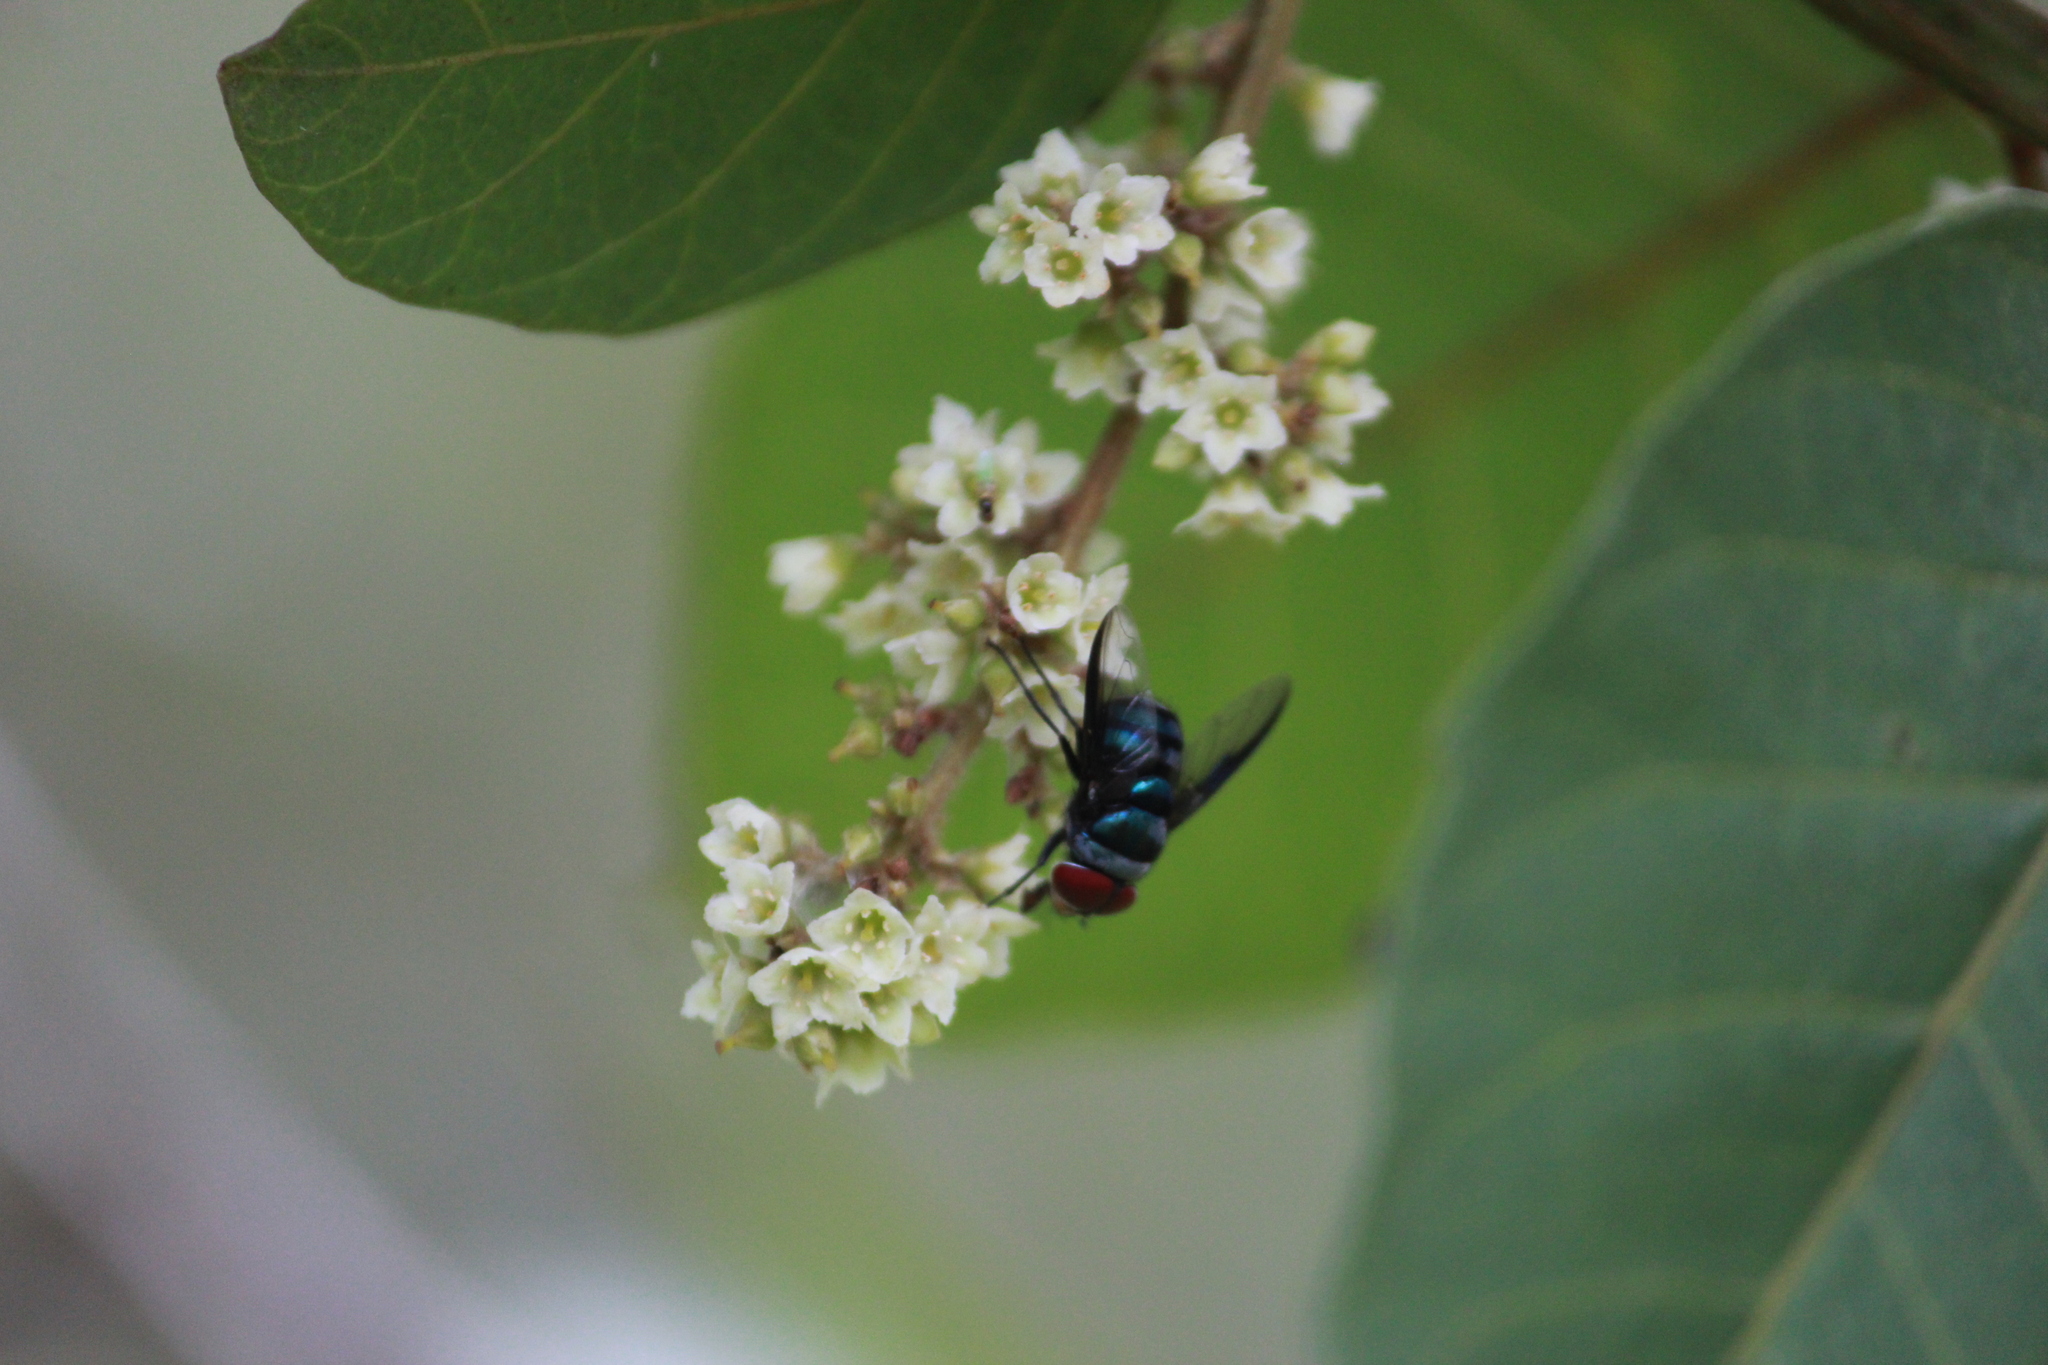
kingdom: Animalia
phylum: Arthropoda
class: Insecta
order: Diptera
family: Calliphoridae
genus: Chrysomya
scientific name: Chrysomya marginalis
